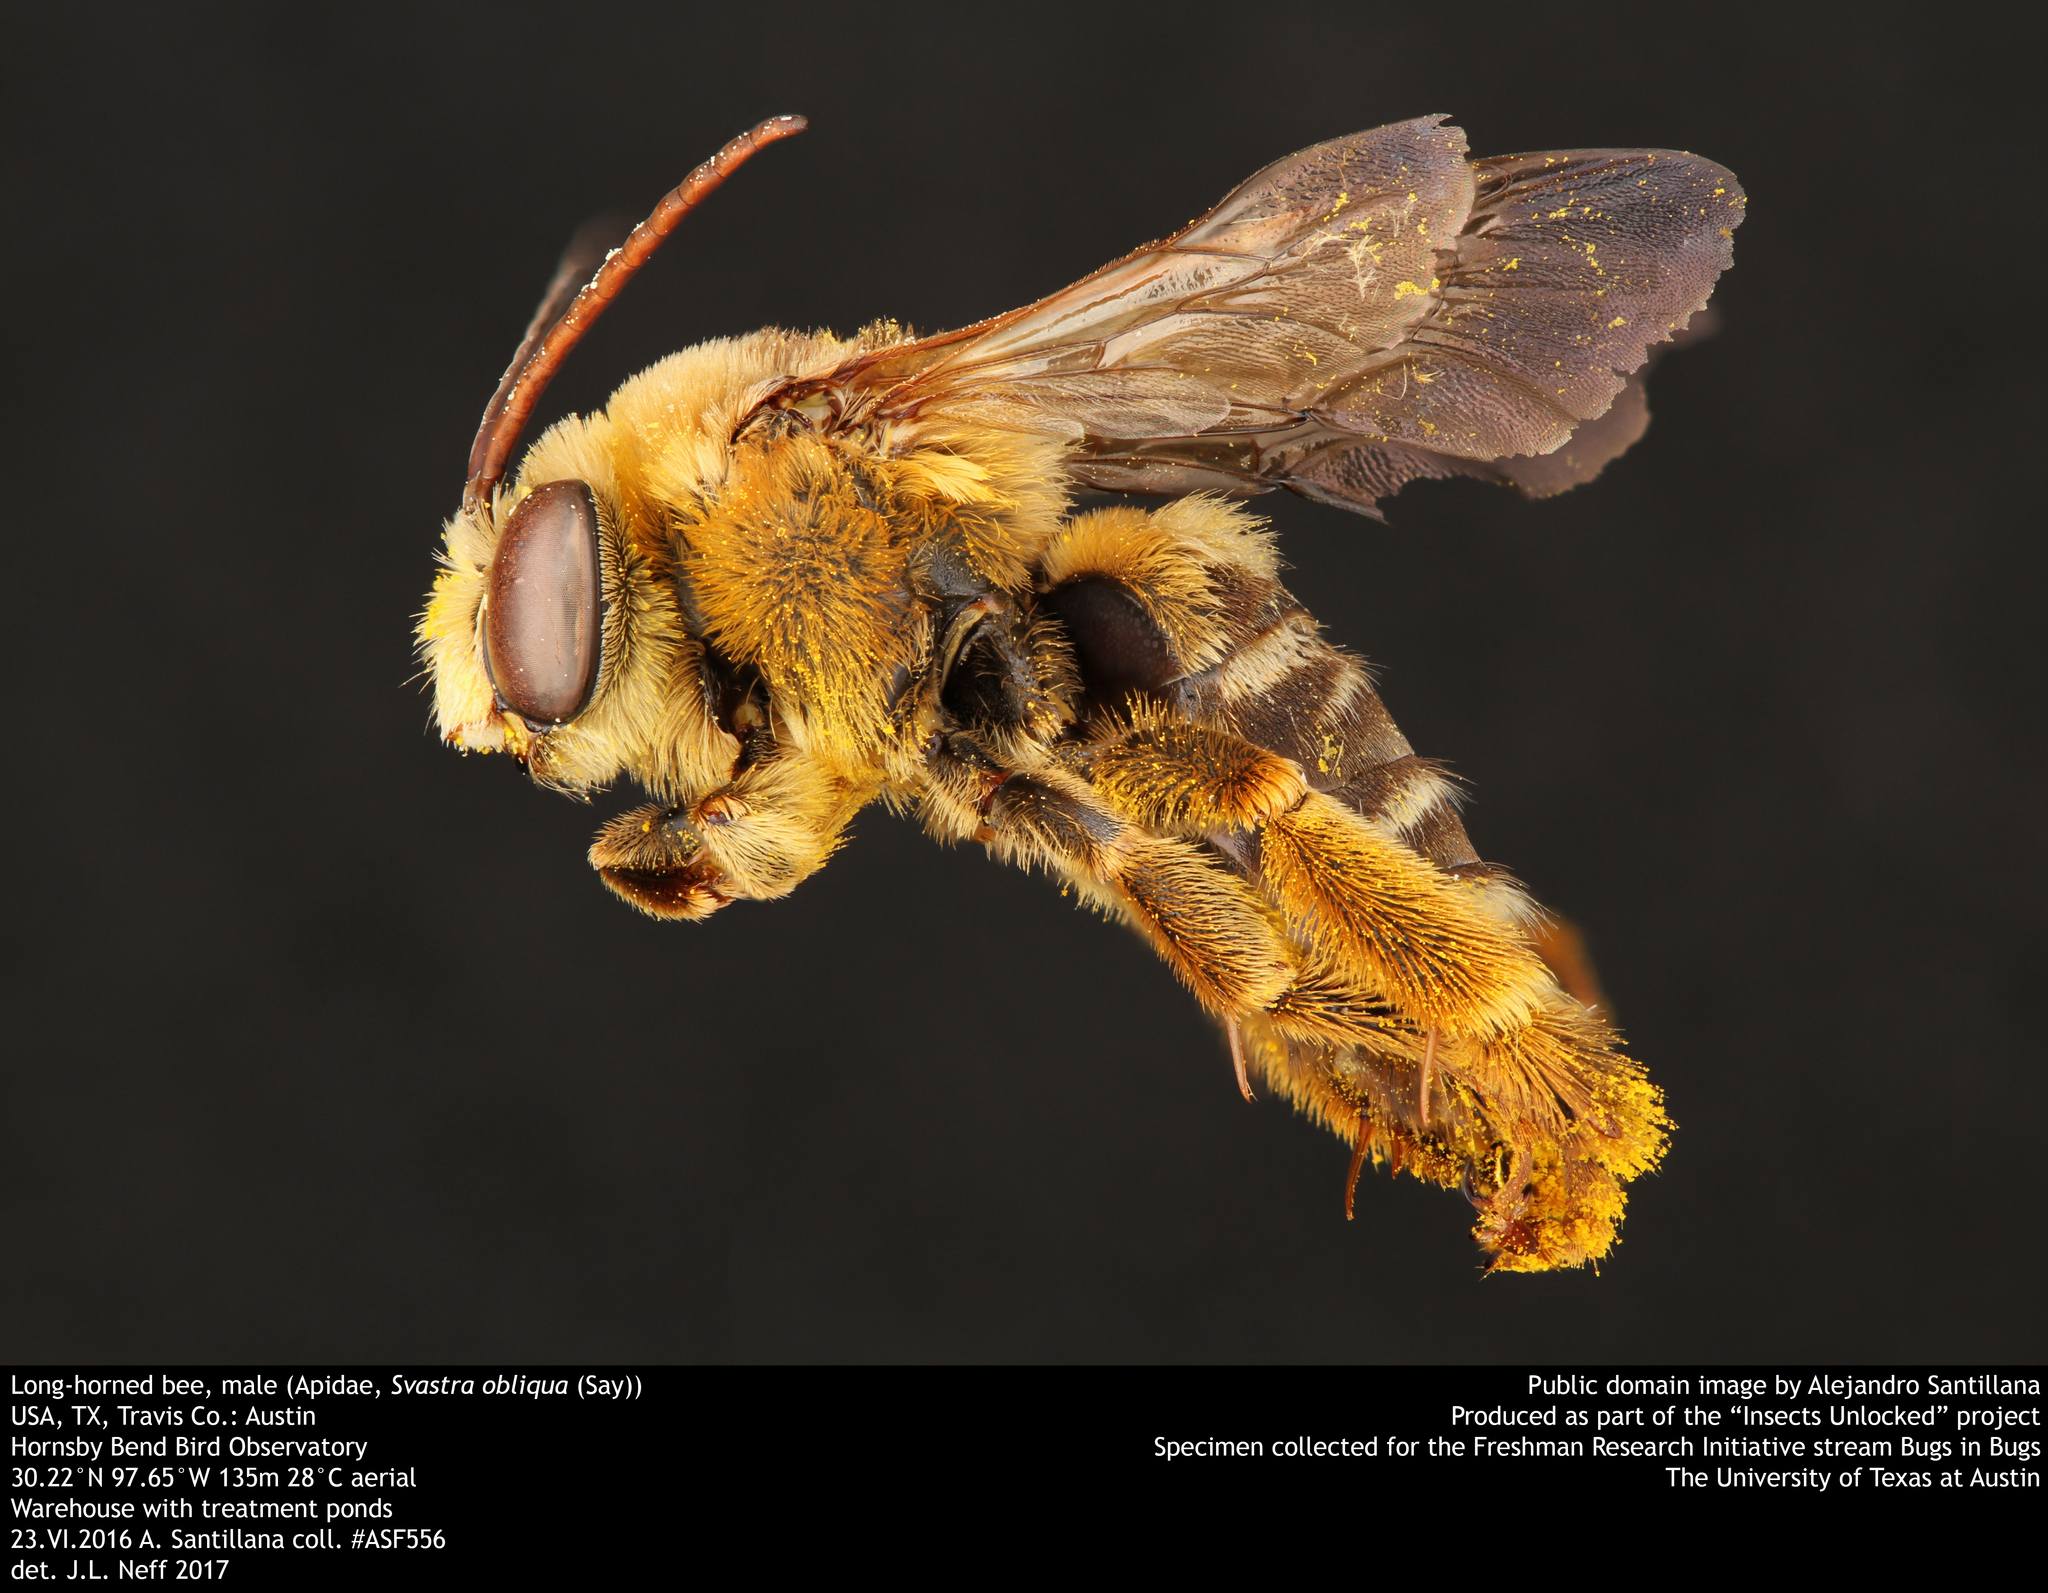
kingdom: Animalia
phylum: Arthropoda
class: Insecta
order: Hymenoptera
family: Apidae
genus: Svastra
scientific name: Svastra obliqua
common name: Oblique longhorn
